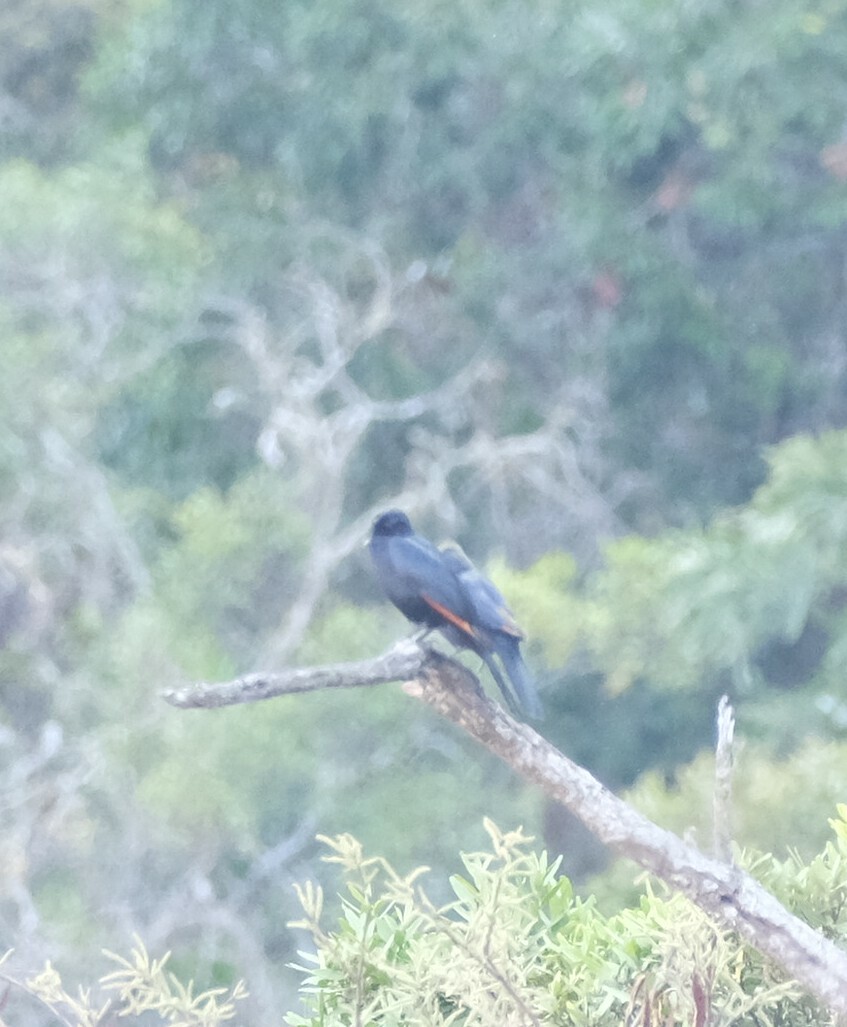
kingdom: Animalia
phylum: Chordata
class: Aves
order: Passeriformes
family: Sturnidae
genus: Onychognathus
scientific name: Onychognathus morio
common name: Red-winged starling
